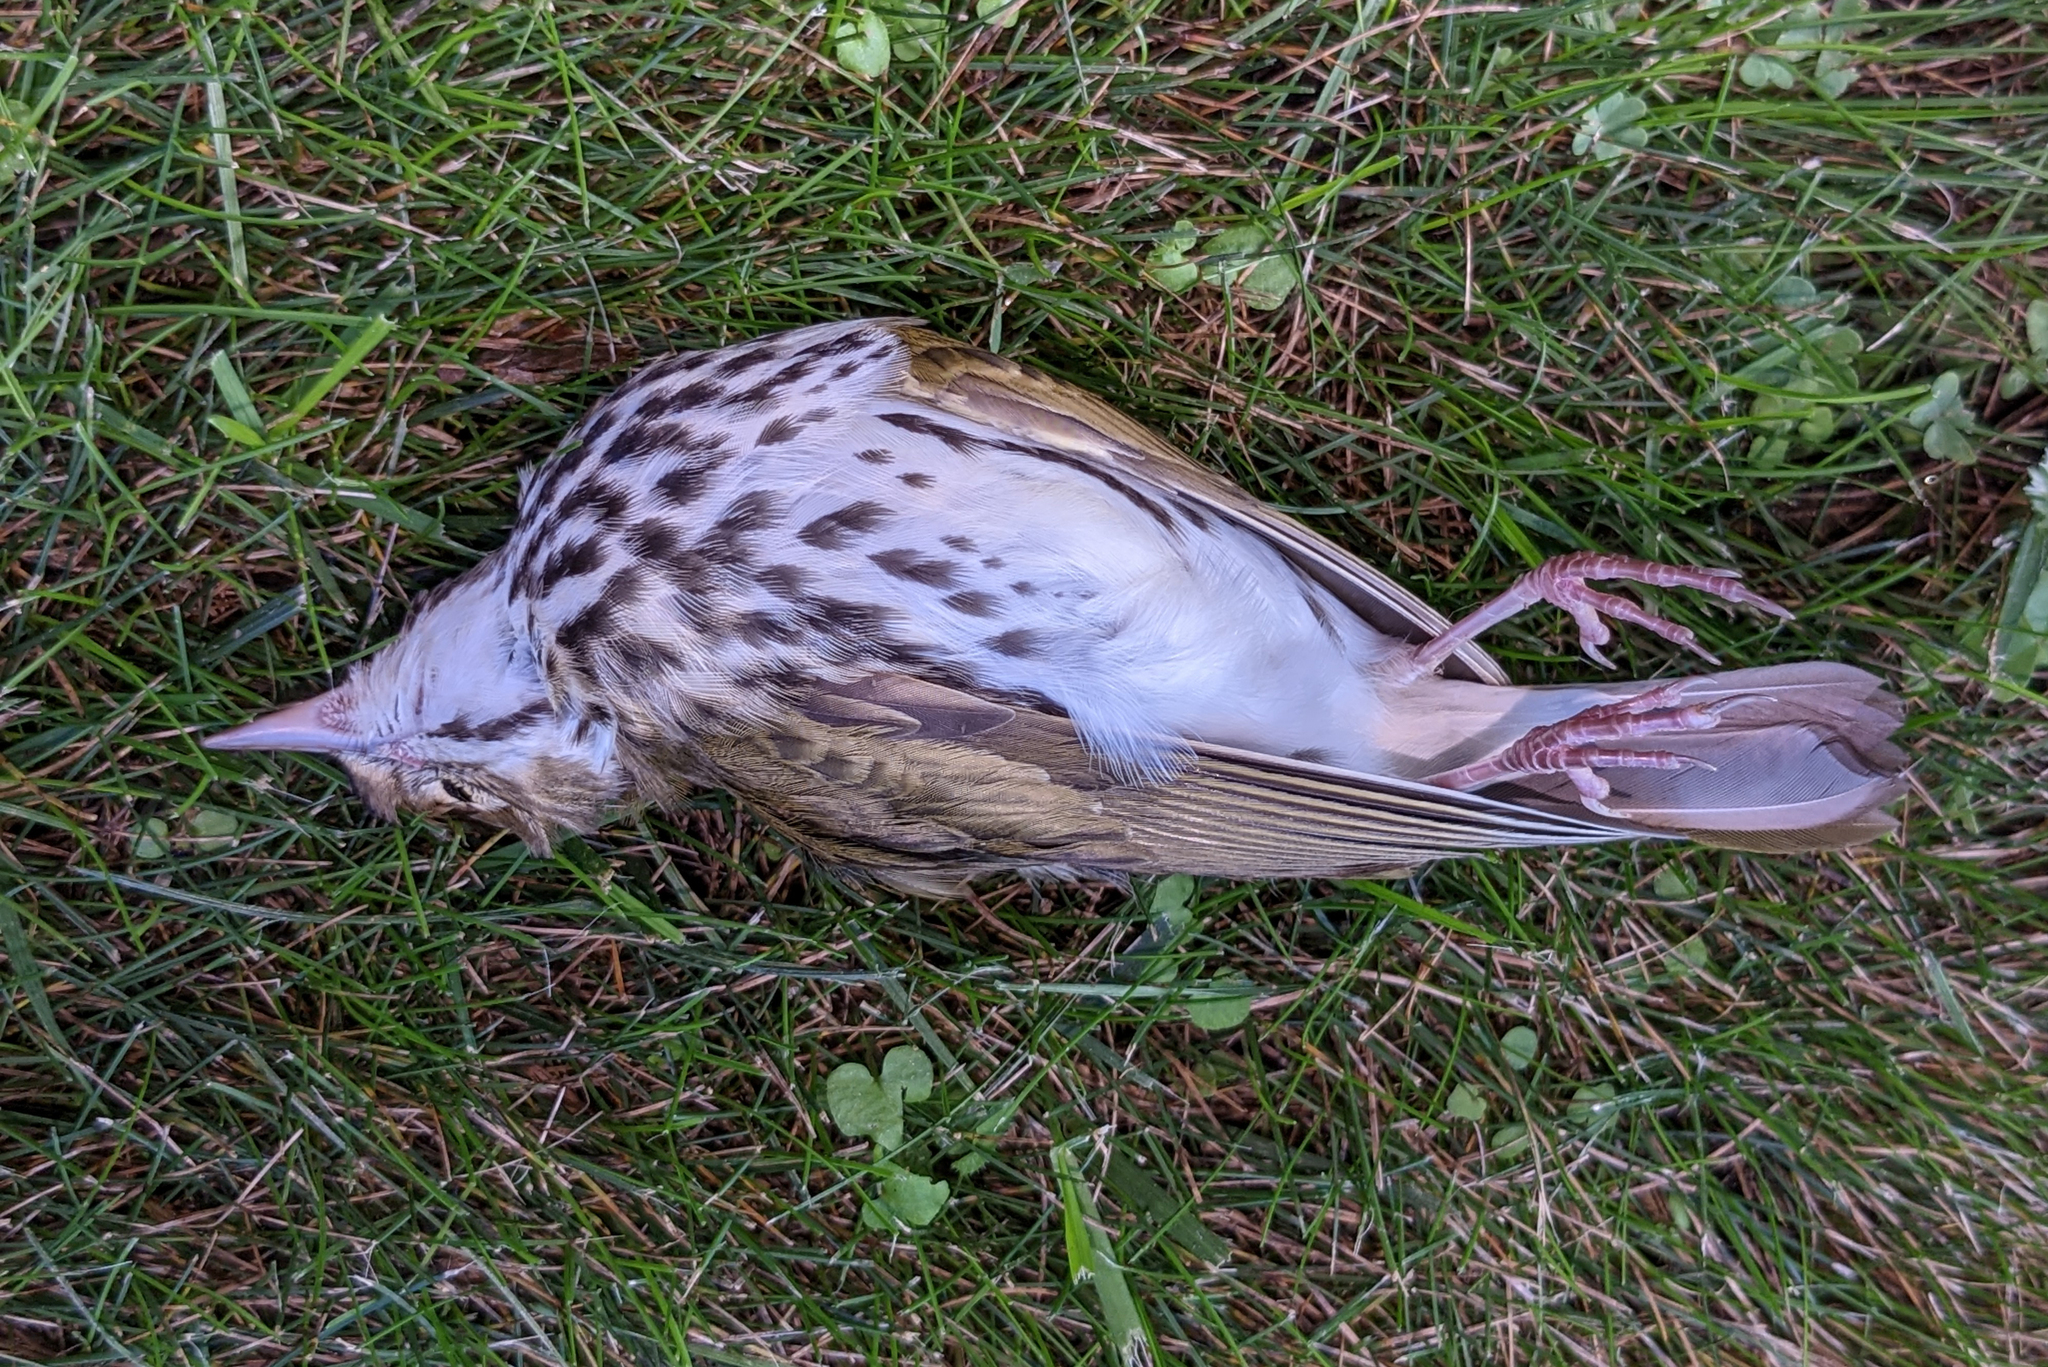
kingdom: Animalia
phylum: Chordata
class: Aves
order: Passeriformes
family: Parulidae
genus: Seiurus
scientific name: Seiurus aurocapilla
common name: Ovenbird
